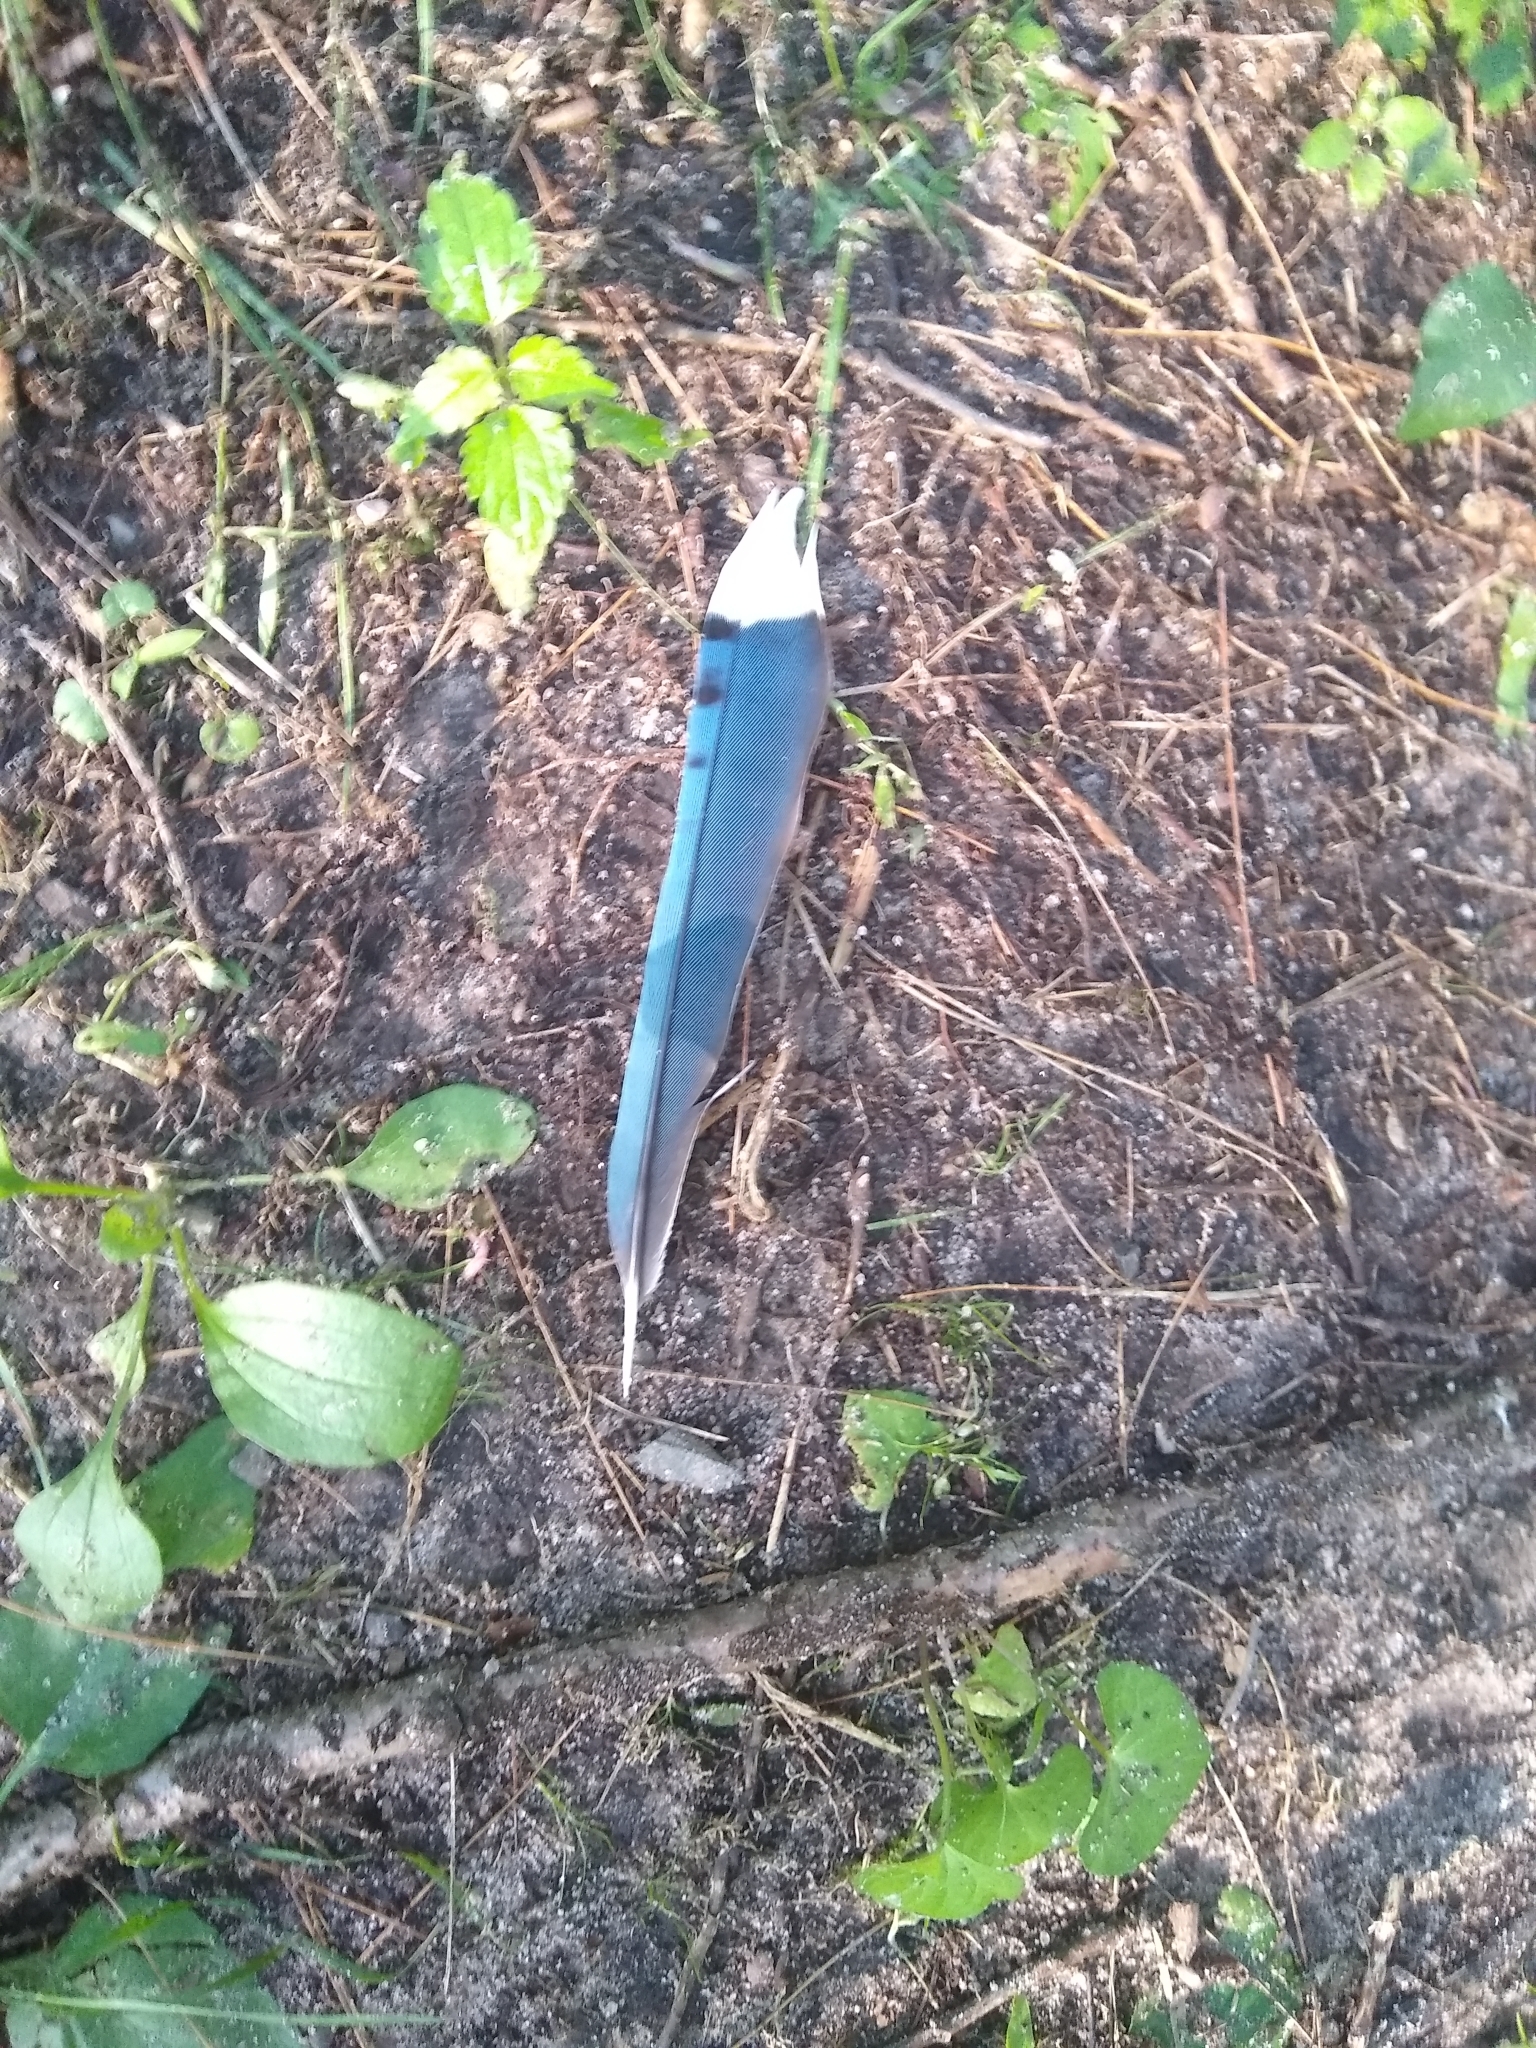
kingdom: Animalia
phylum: Chordata
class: Aves
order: Passeriformes
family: Corvidae
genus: Cyanocitta
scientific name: Cyanocitta cristata
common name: Blue jay
